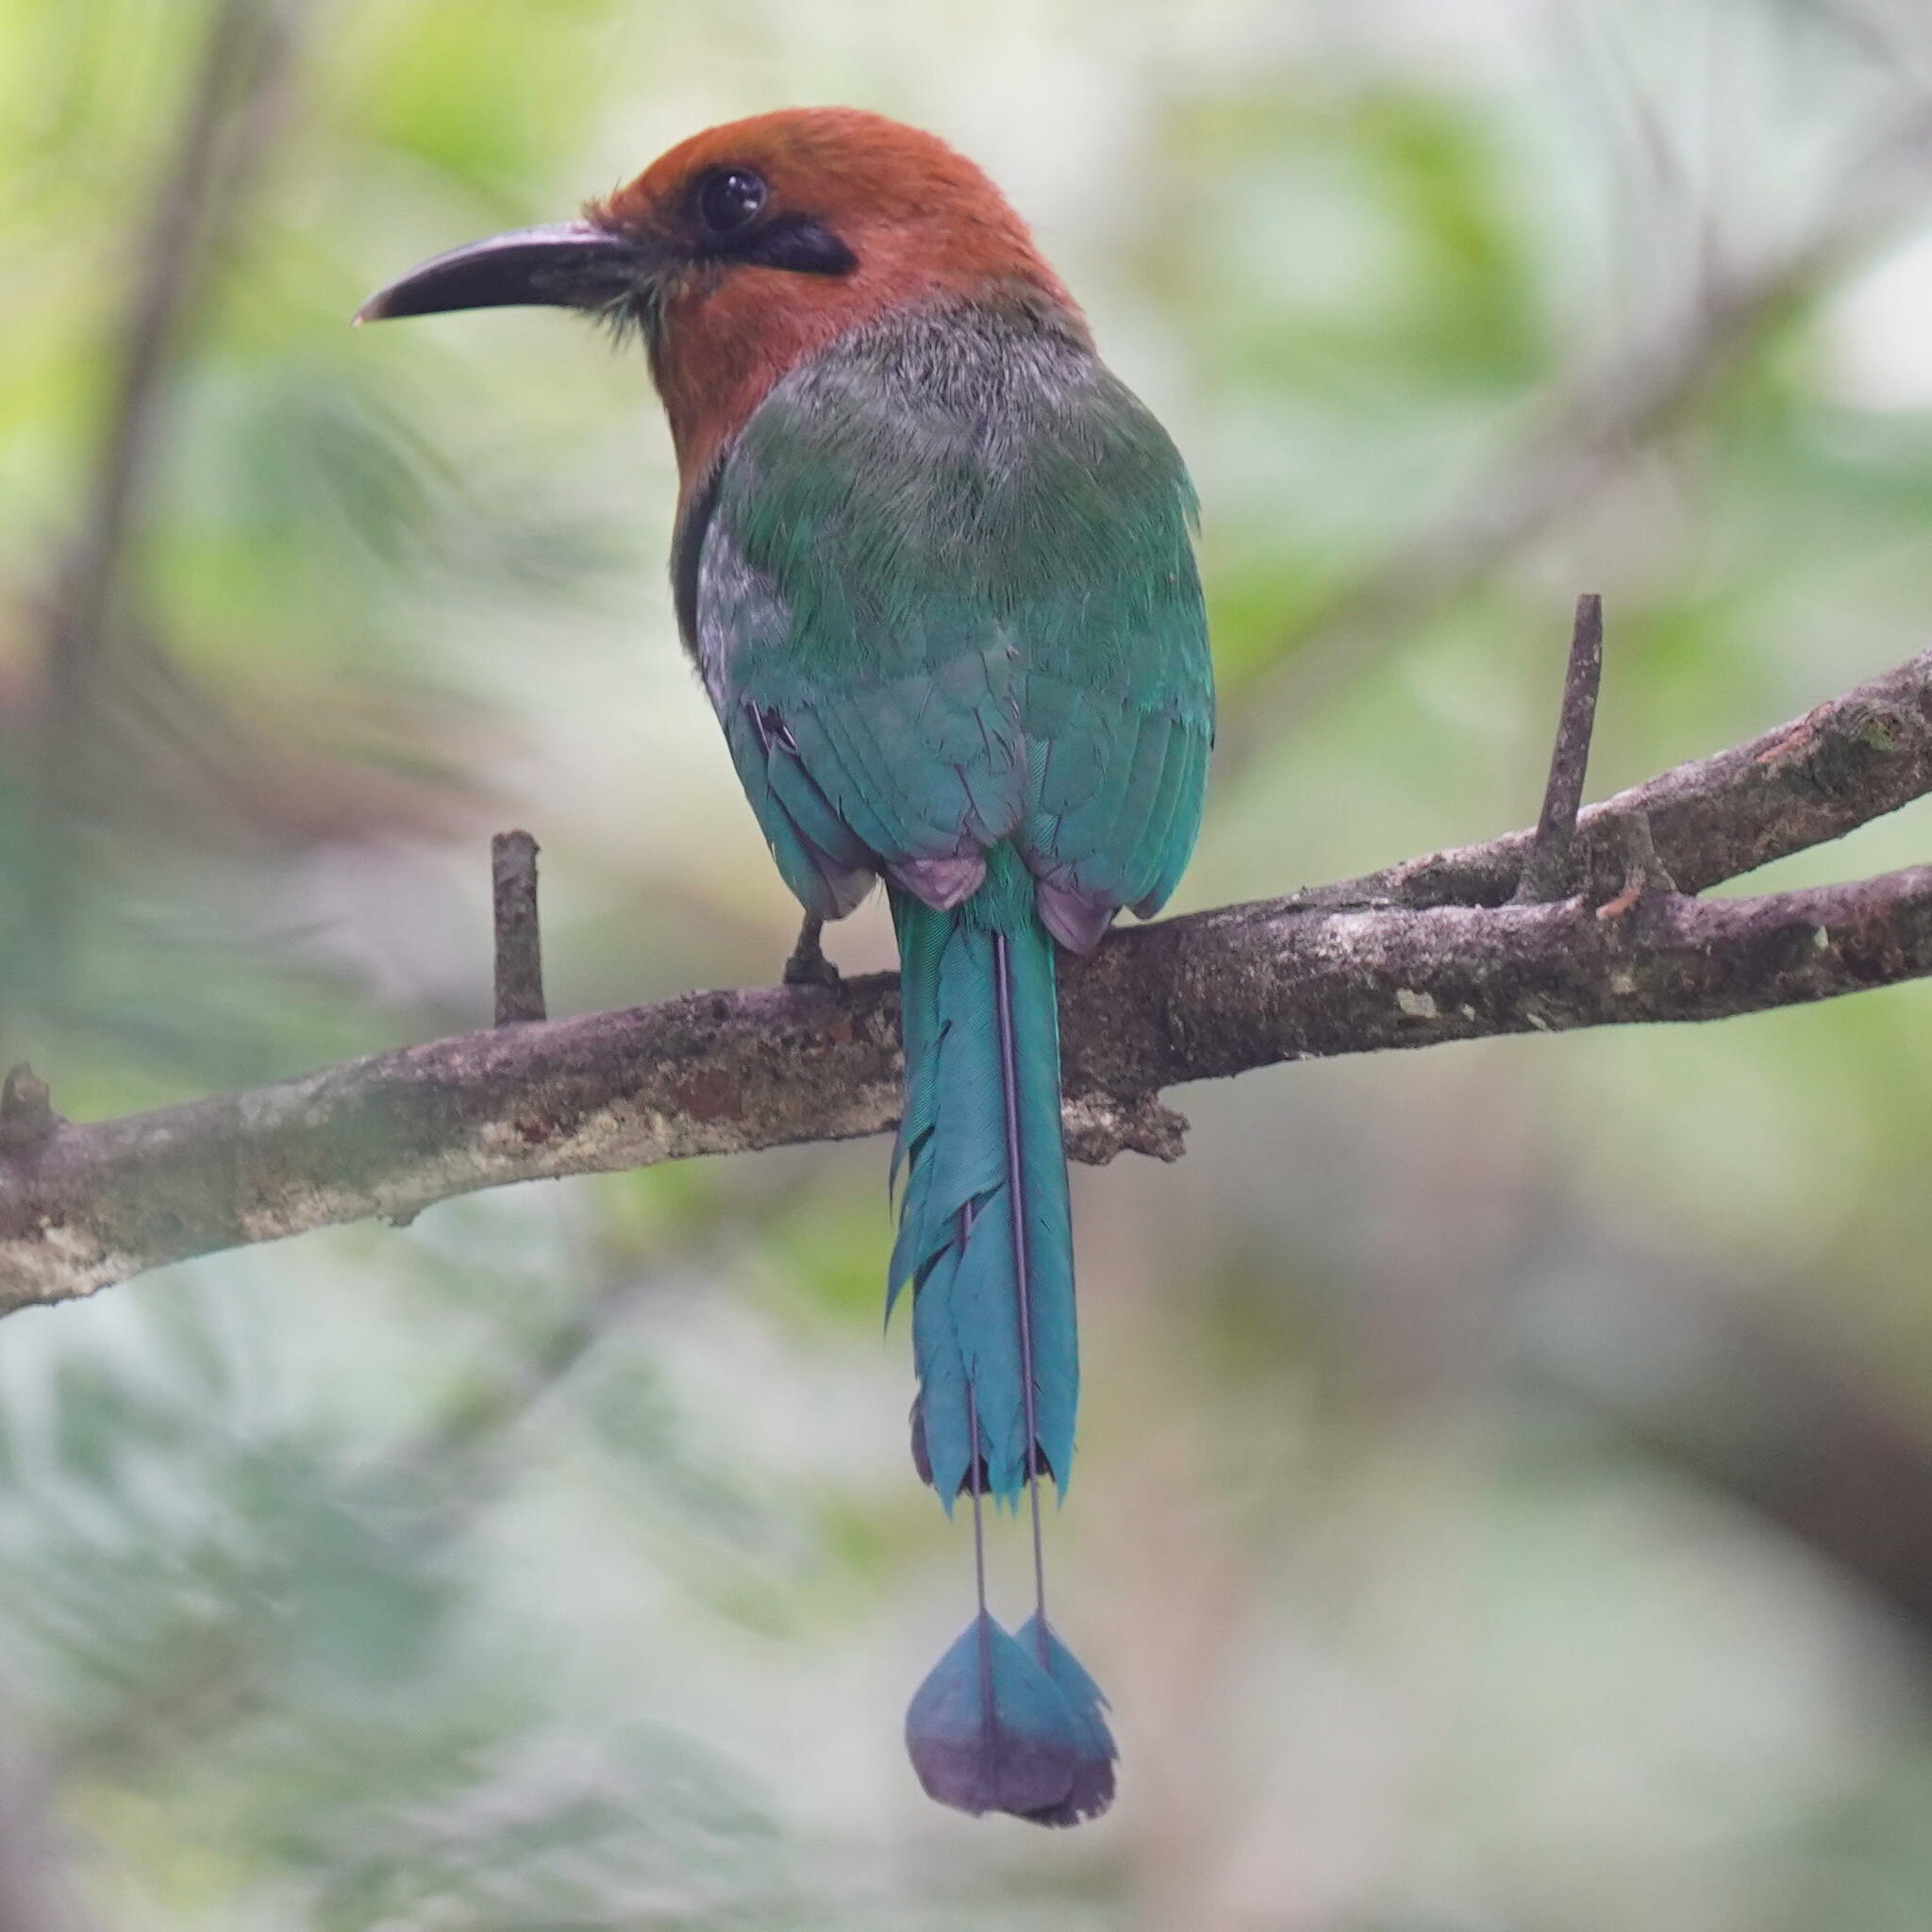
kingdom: Animalia
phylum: Chordata
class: Aves
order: Coraciiformes
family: Momotidae
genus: Electron
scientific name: Electron platyrhynchum
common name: Broad-billed motmot
